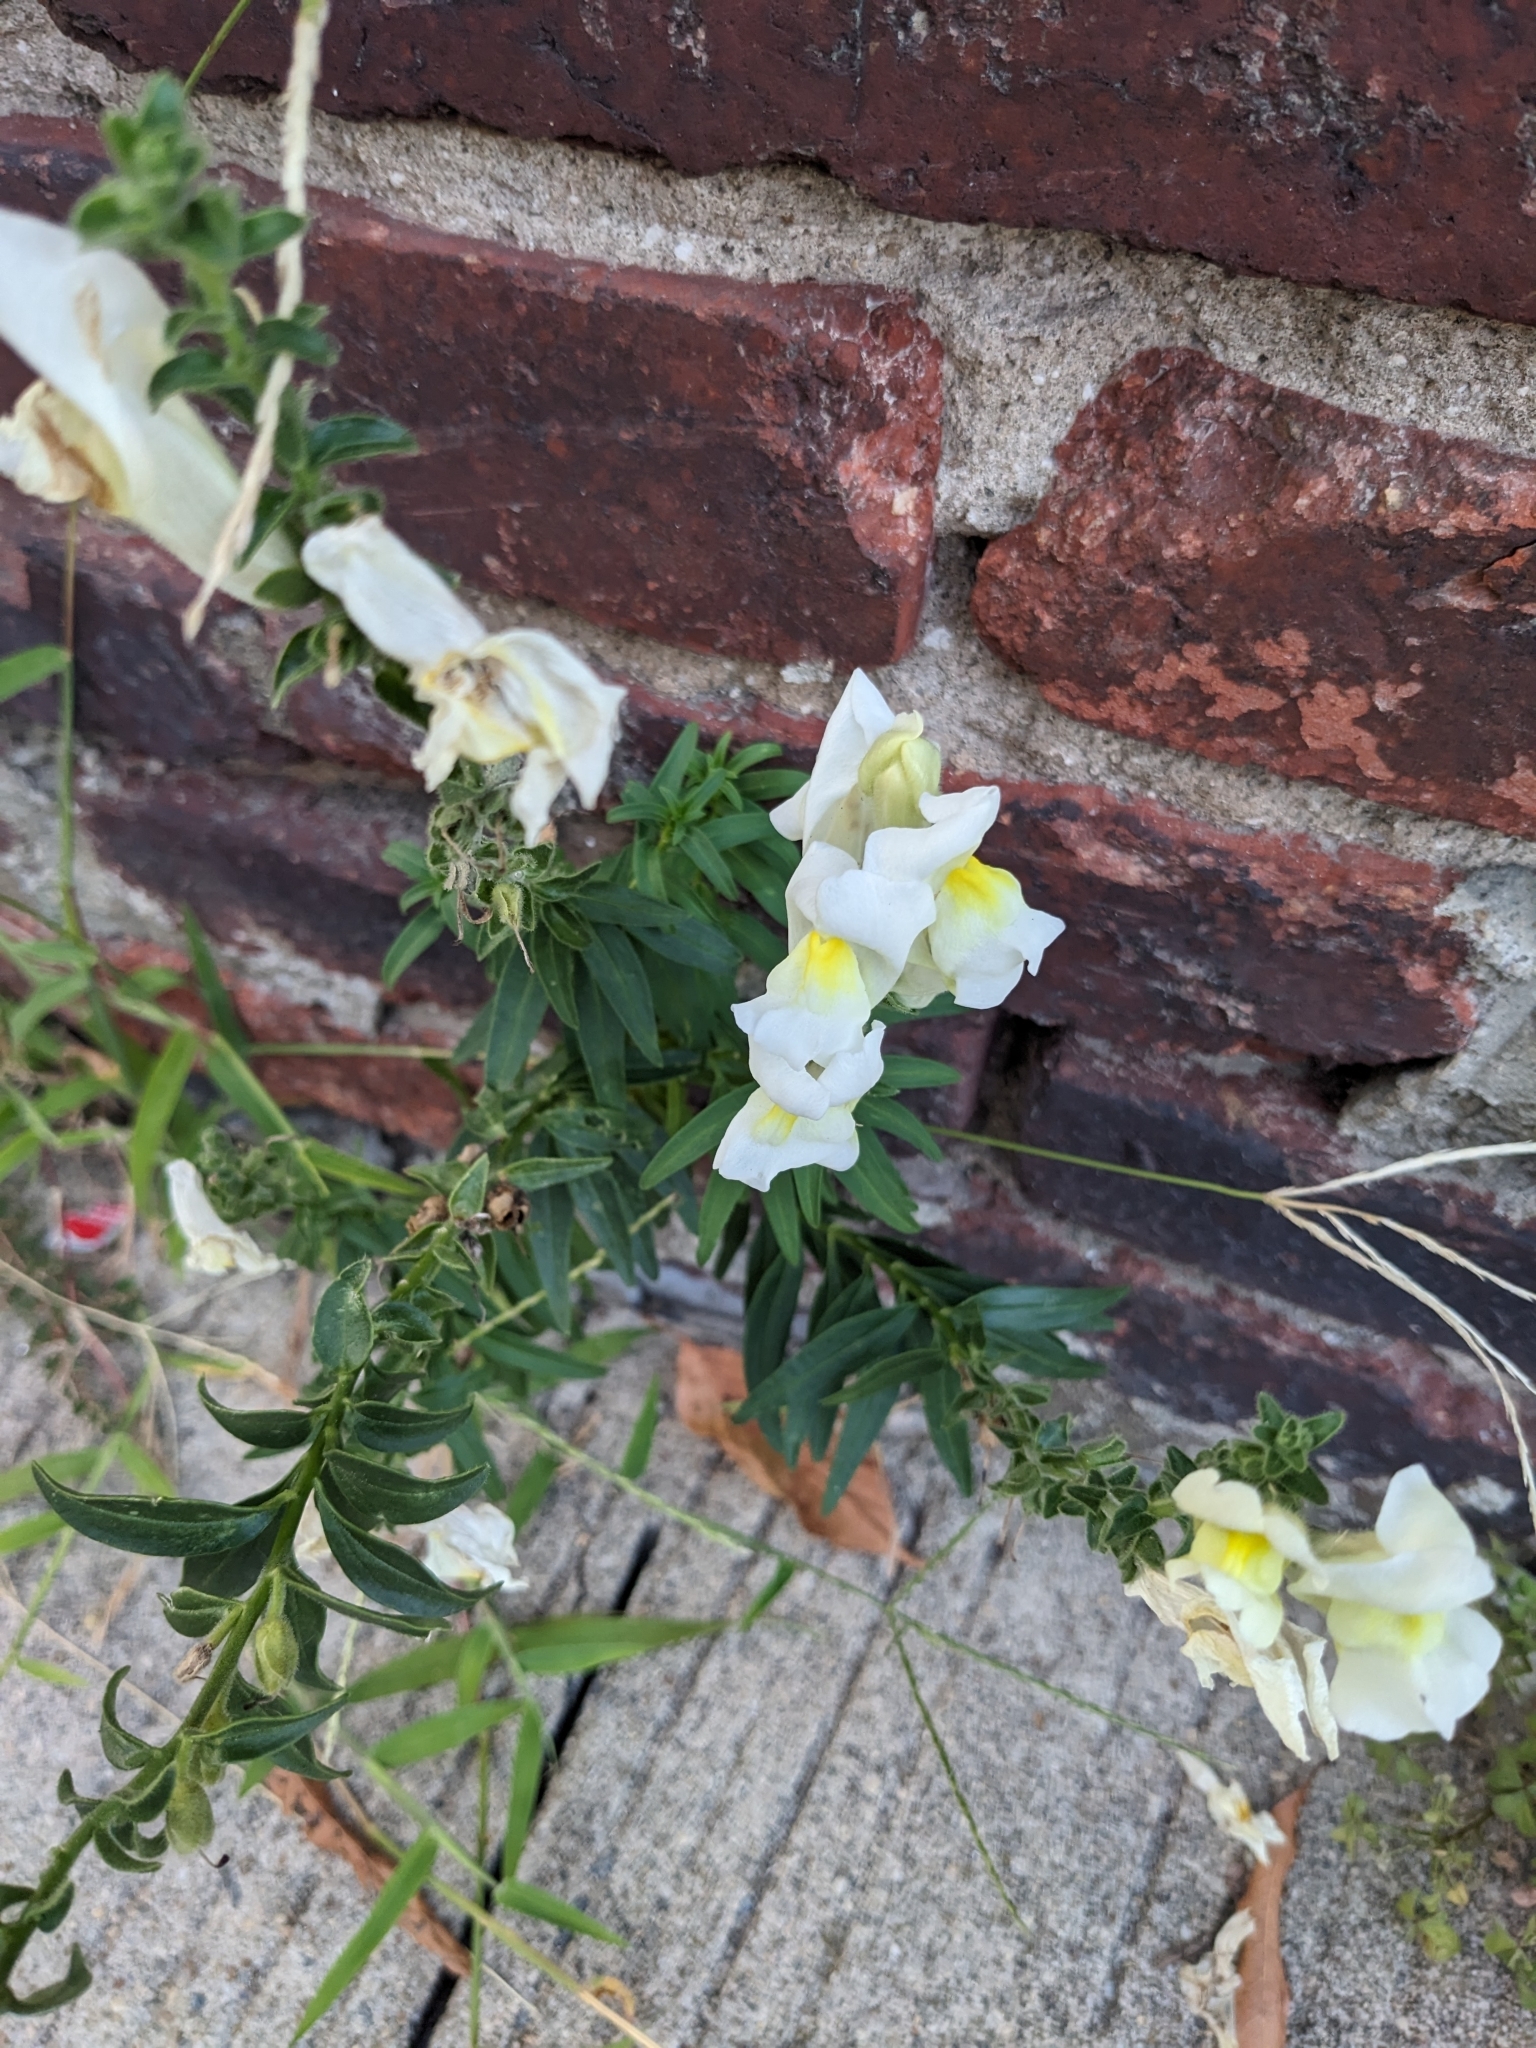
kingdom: Plantae
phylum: Tracheophyta
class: Magnoliopsida
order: Lamiales
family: Plantaginaceae
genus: Antirrhinum
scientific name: Antirrhinum majus
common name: Snapdragon
